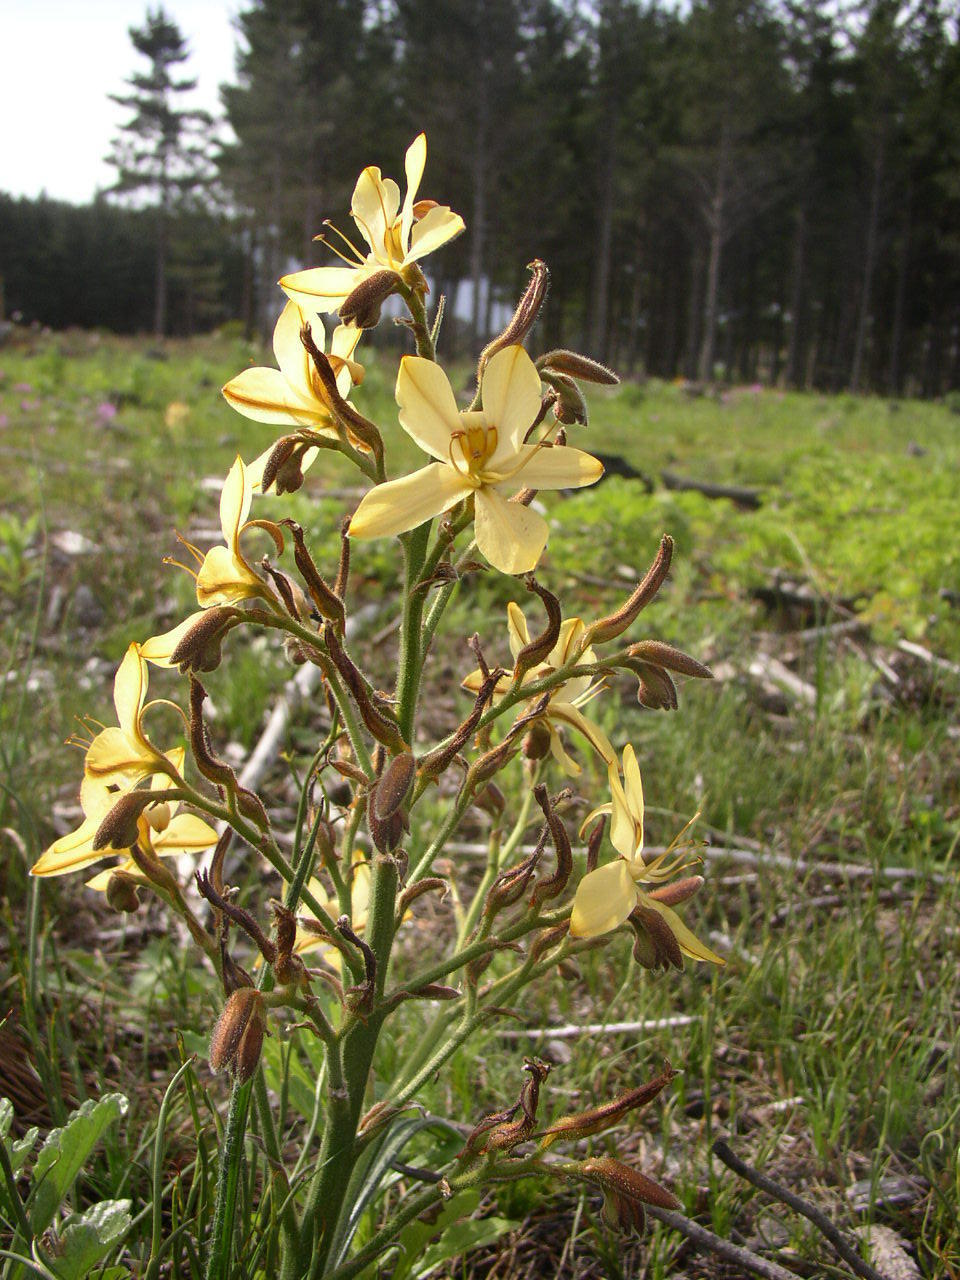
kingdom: Plantae
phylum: Tracheophyta
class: Liliopsida
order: Commelinales
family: Haemodoraceae
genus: Wachendorfia
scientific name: Wachendorfia paniculata
